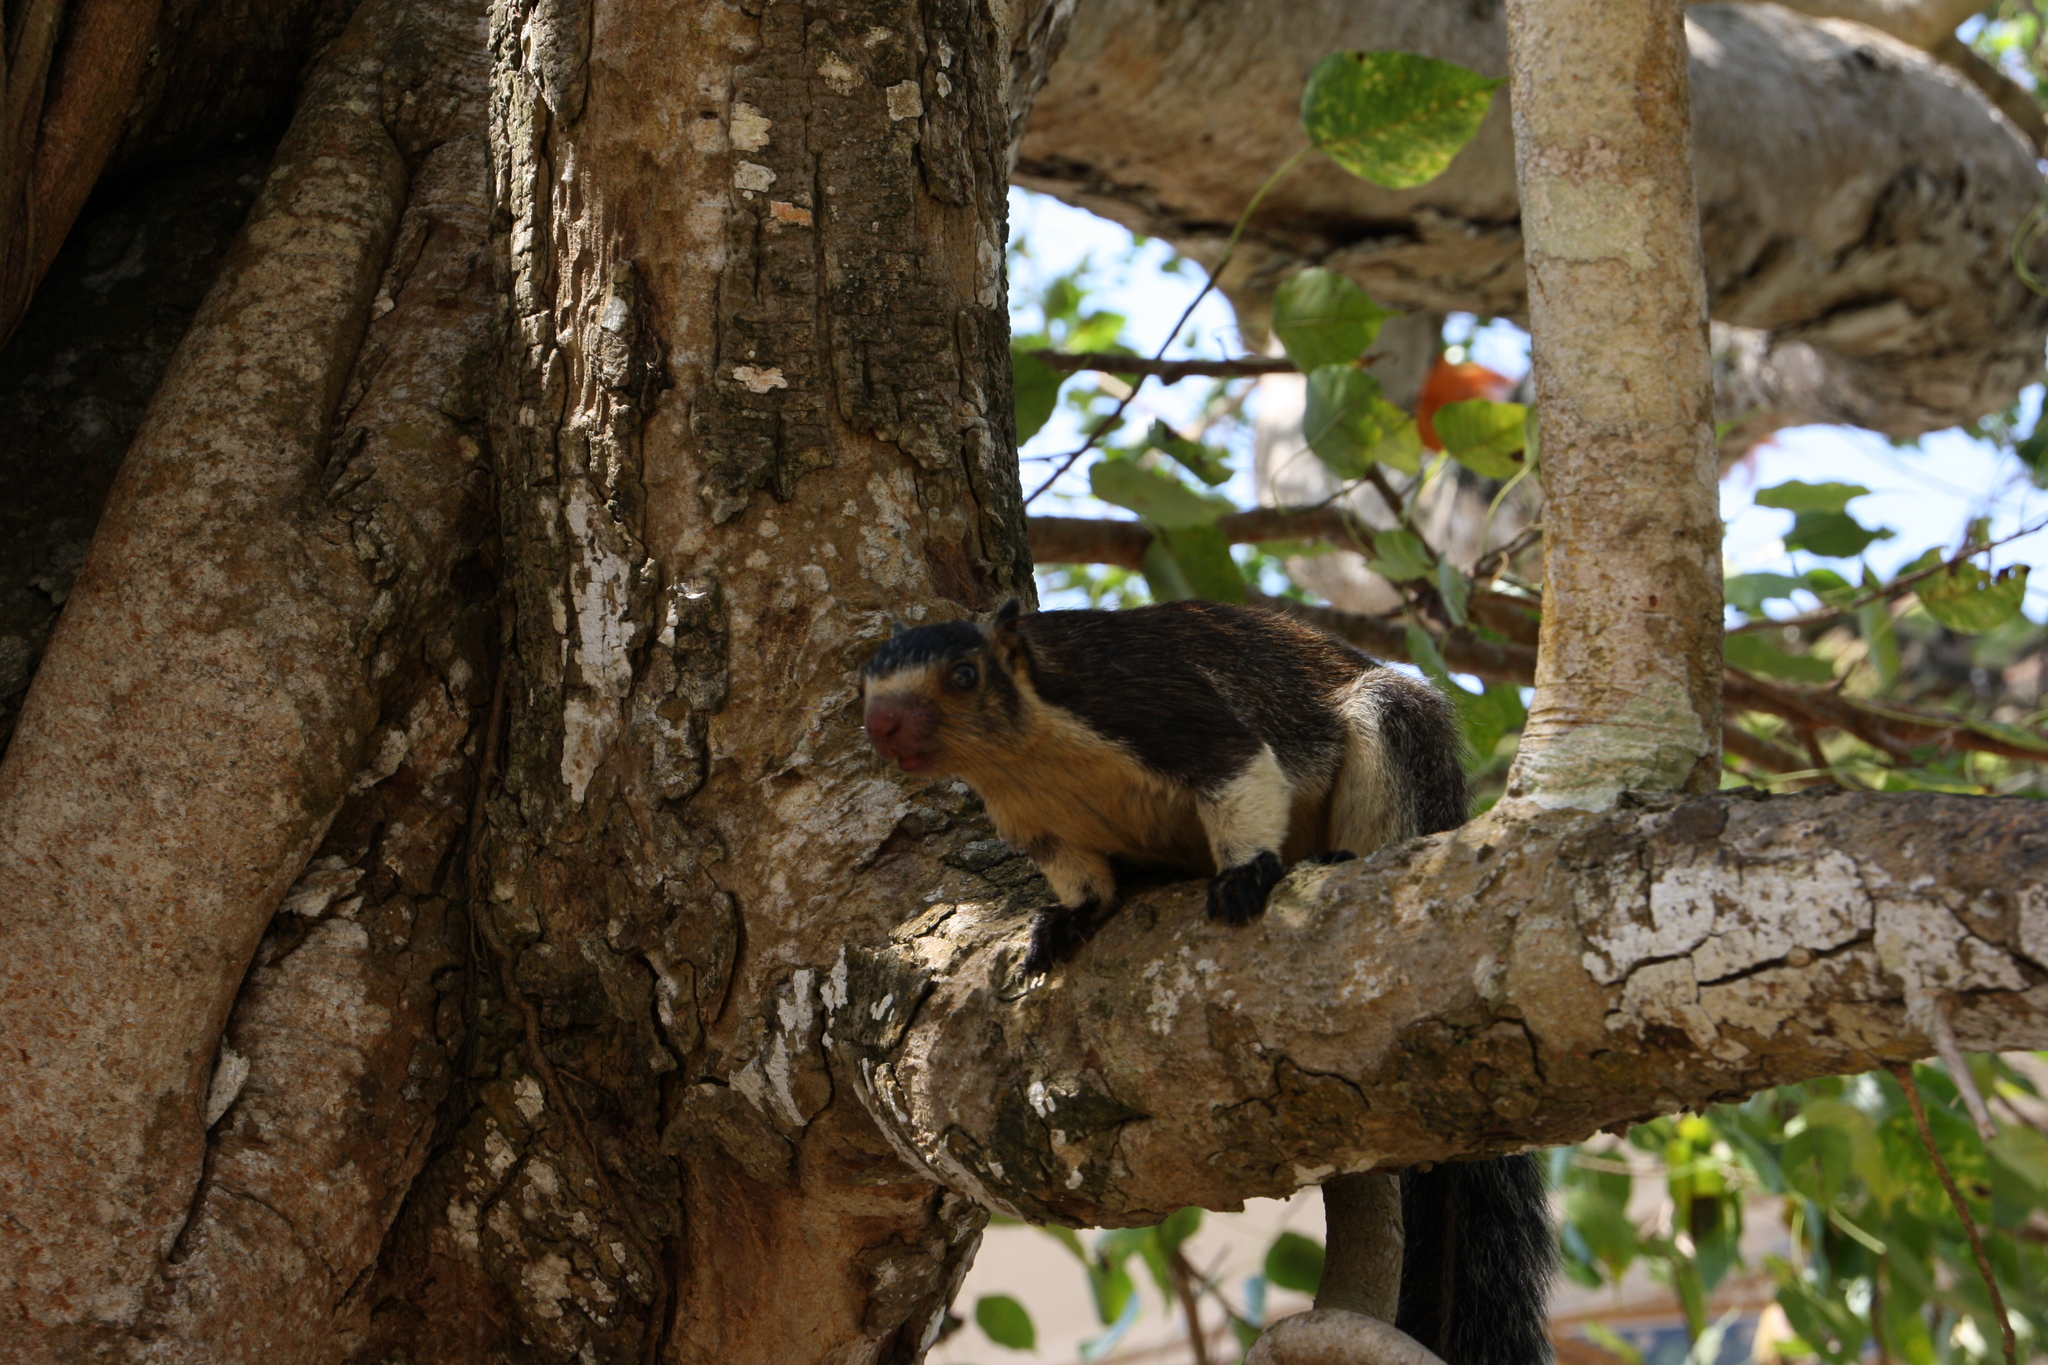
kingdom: Animalia
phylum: Chordata
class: Mammalia
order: Rodentia
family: Sciuridae
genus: Ratufa
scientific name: Ratufa macroura
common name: Sri lankan giant squirrel
